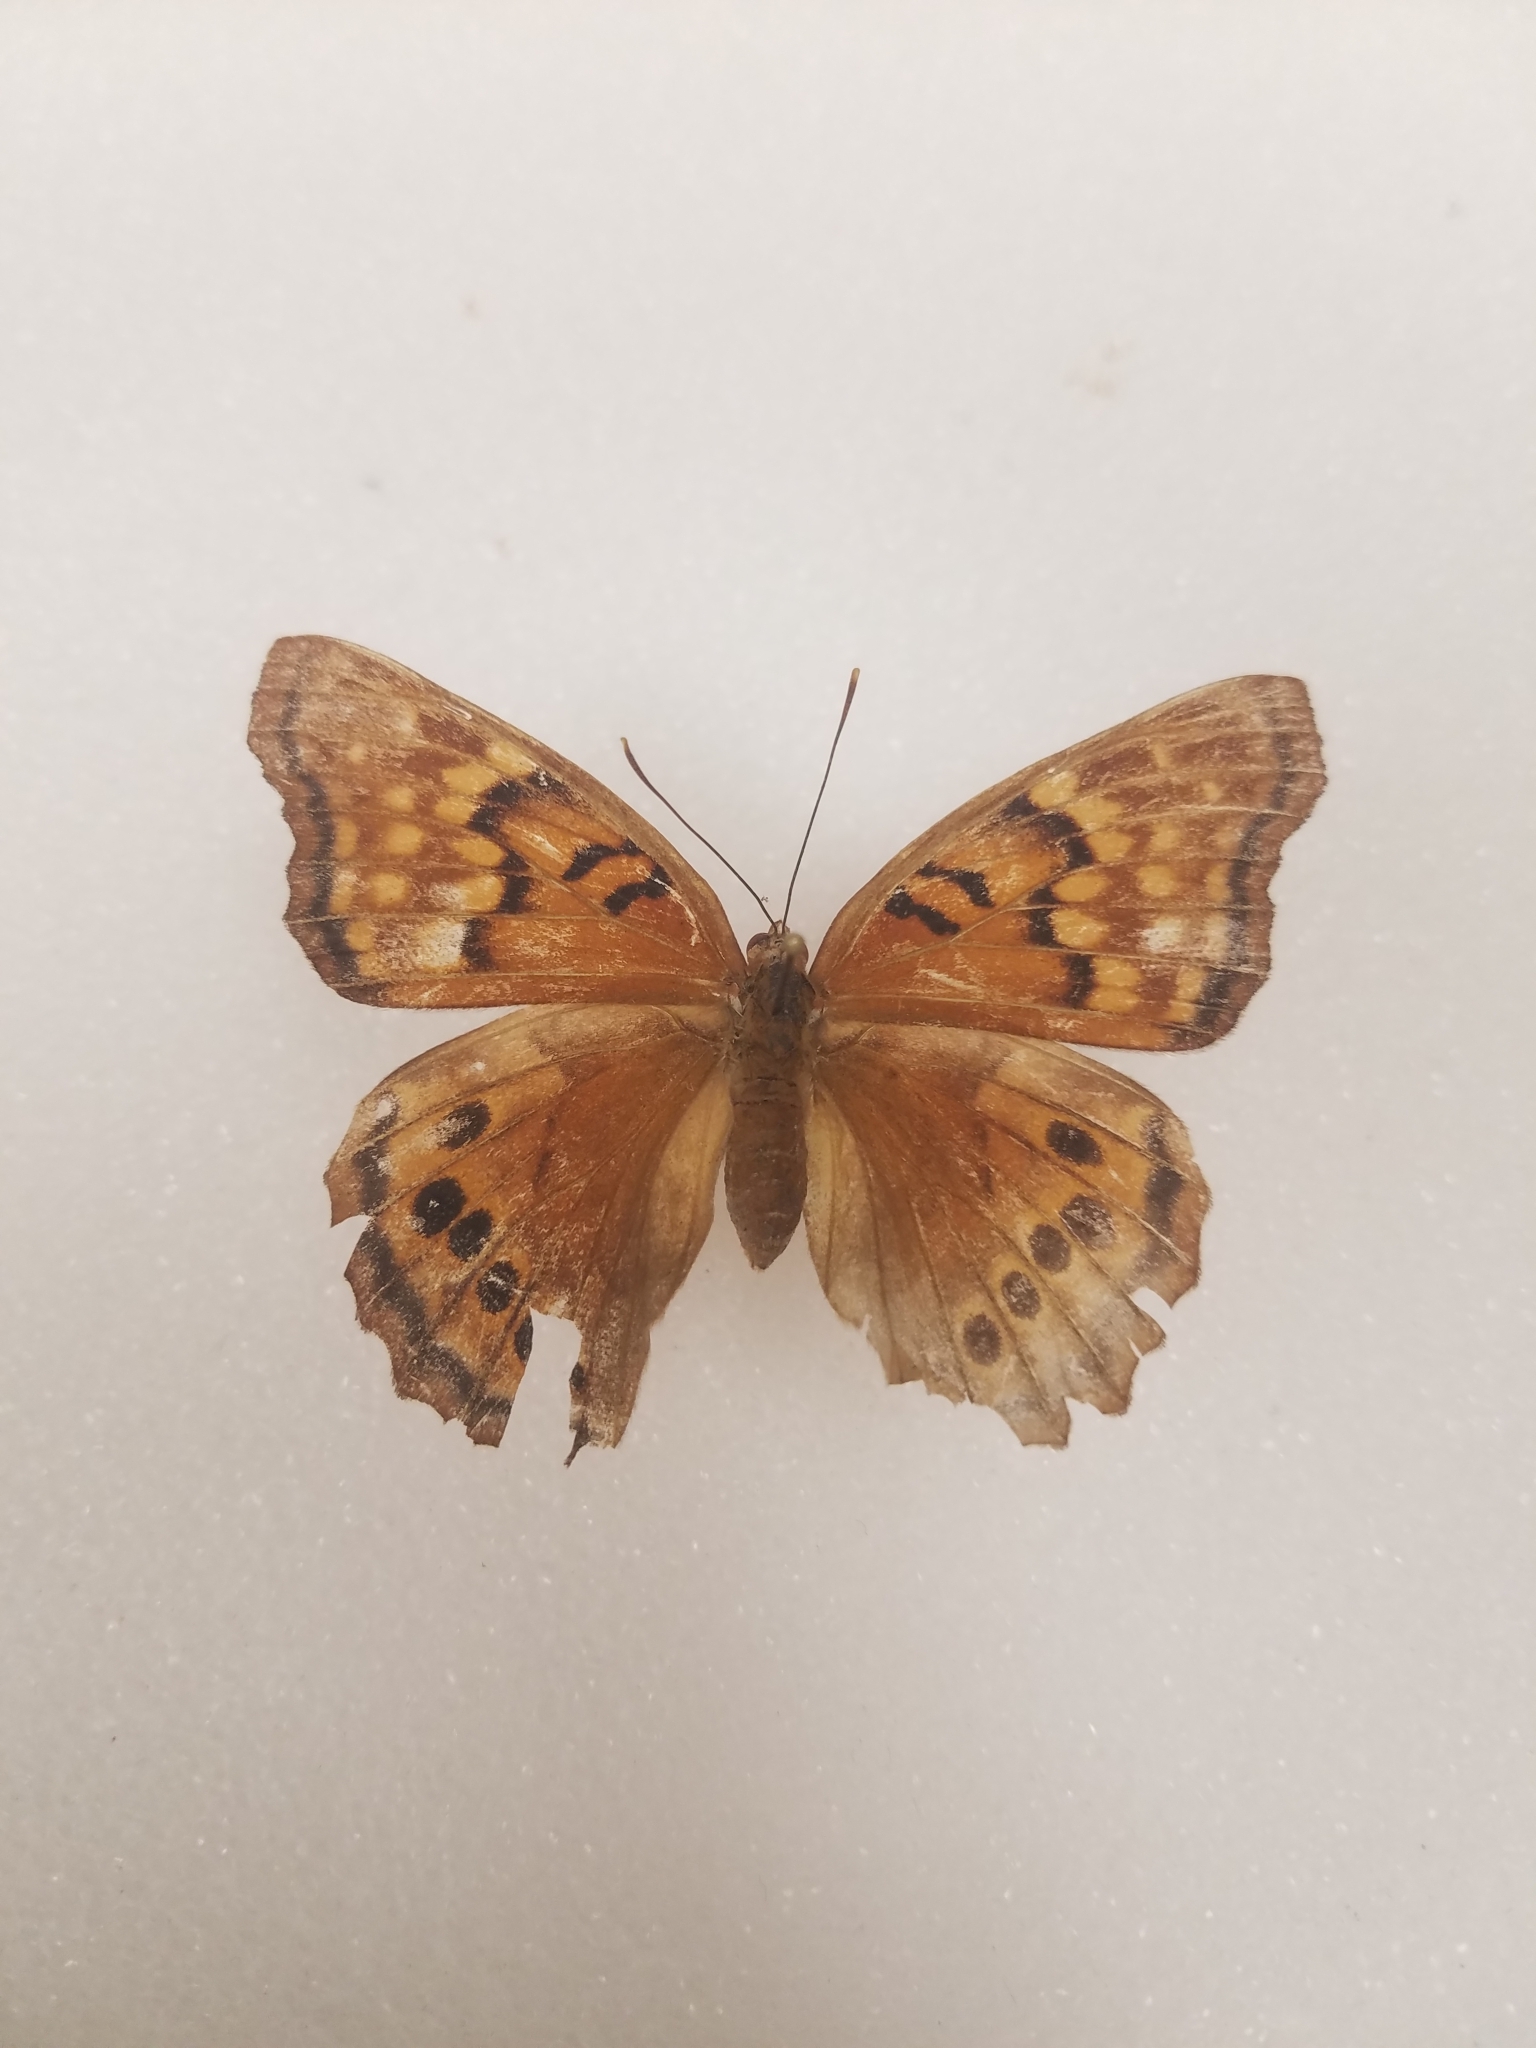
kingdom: Animalia
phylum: Arthropoda
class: Insecta
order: Lepidoptera
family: Nymphalidae
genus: Asterocampa
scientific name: Asterocampa clyton
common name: Tawny emperor
